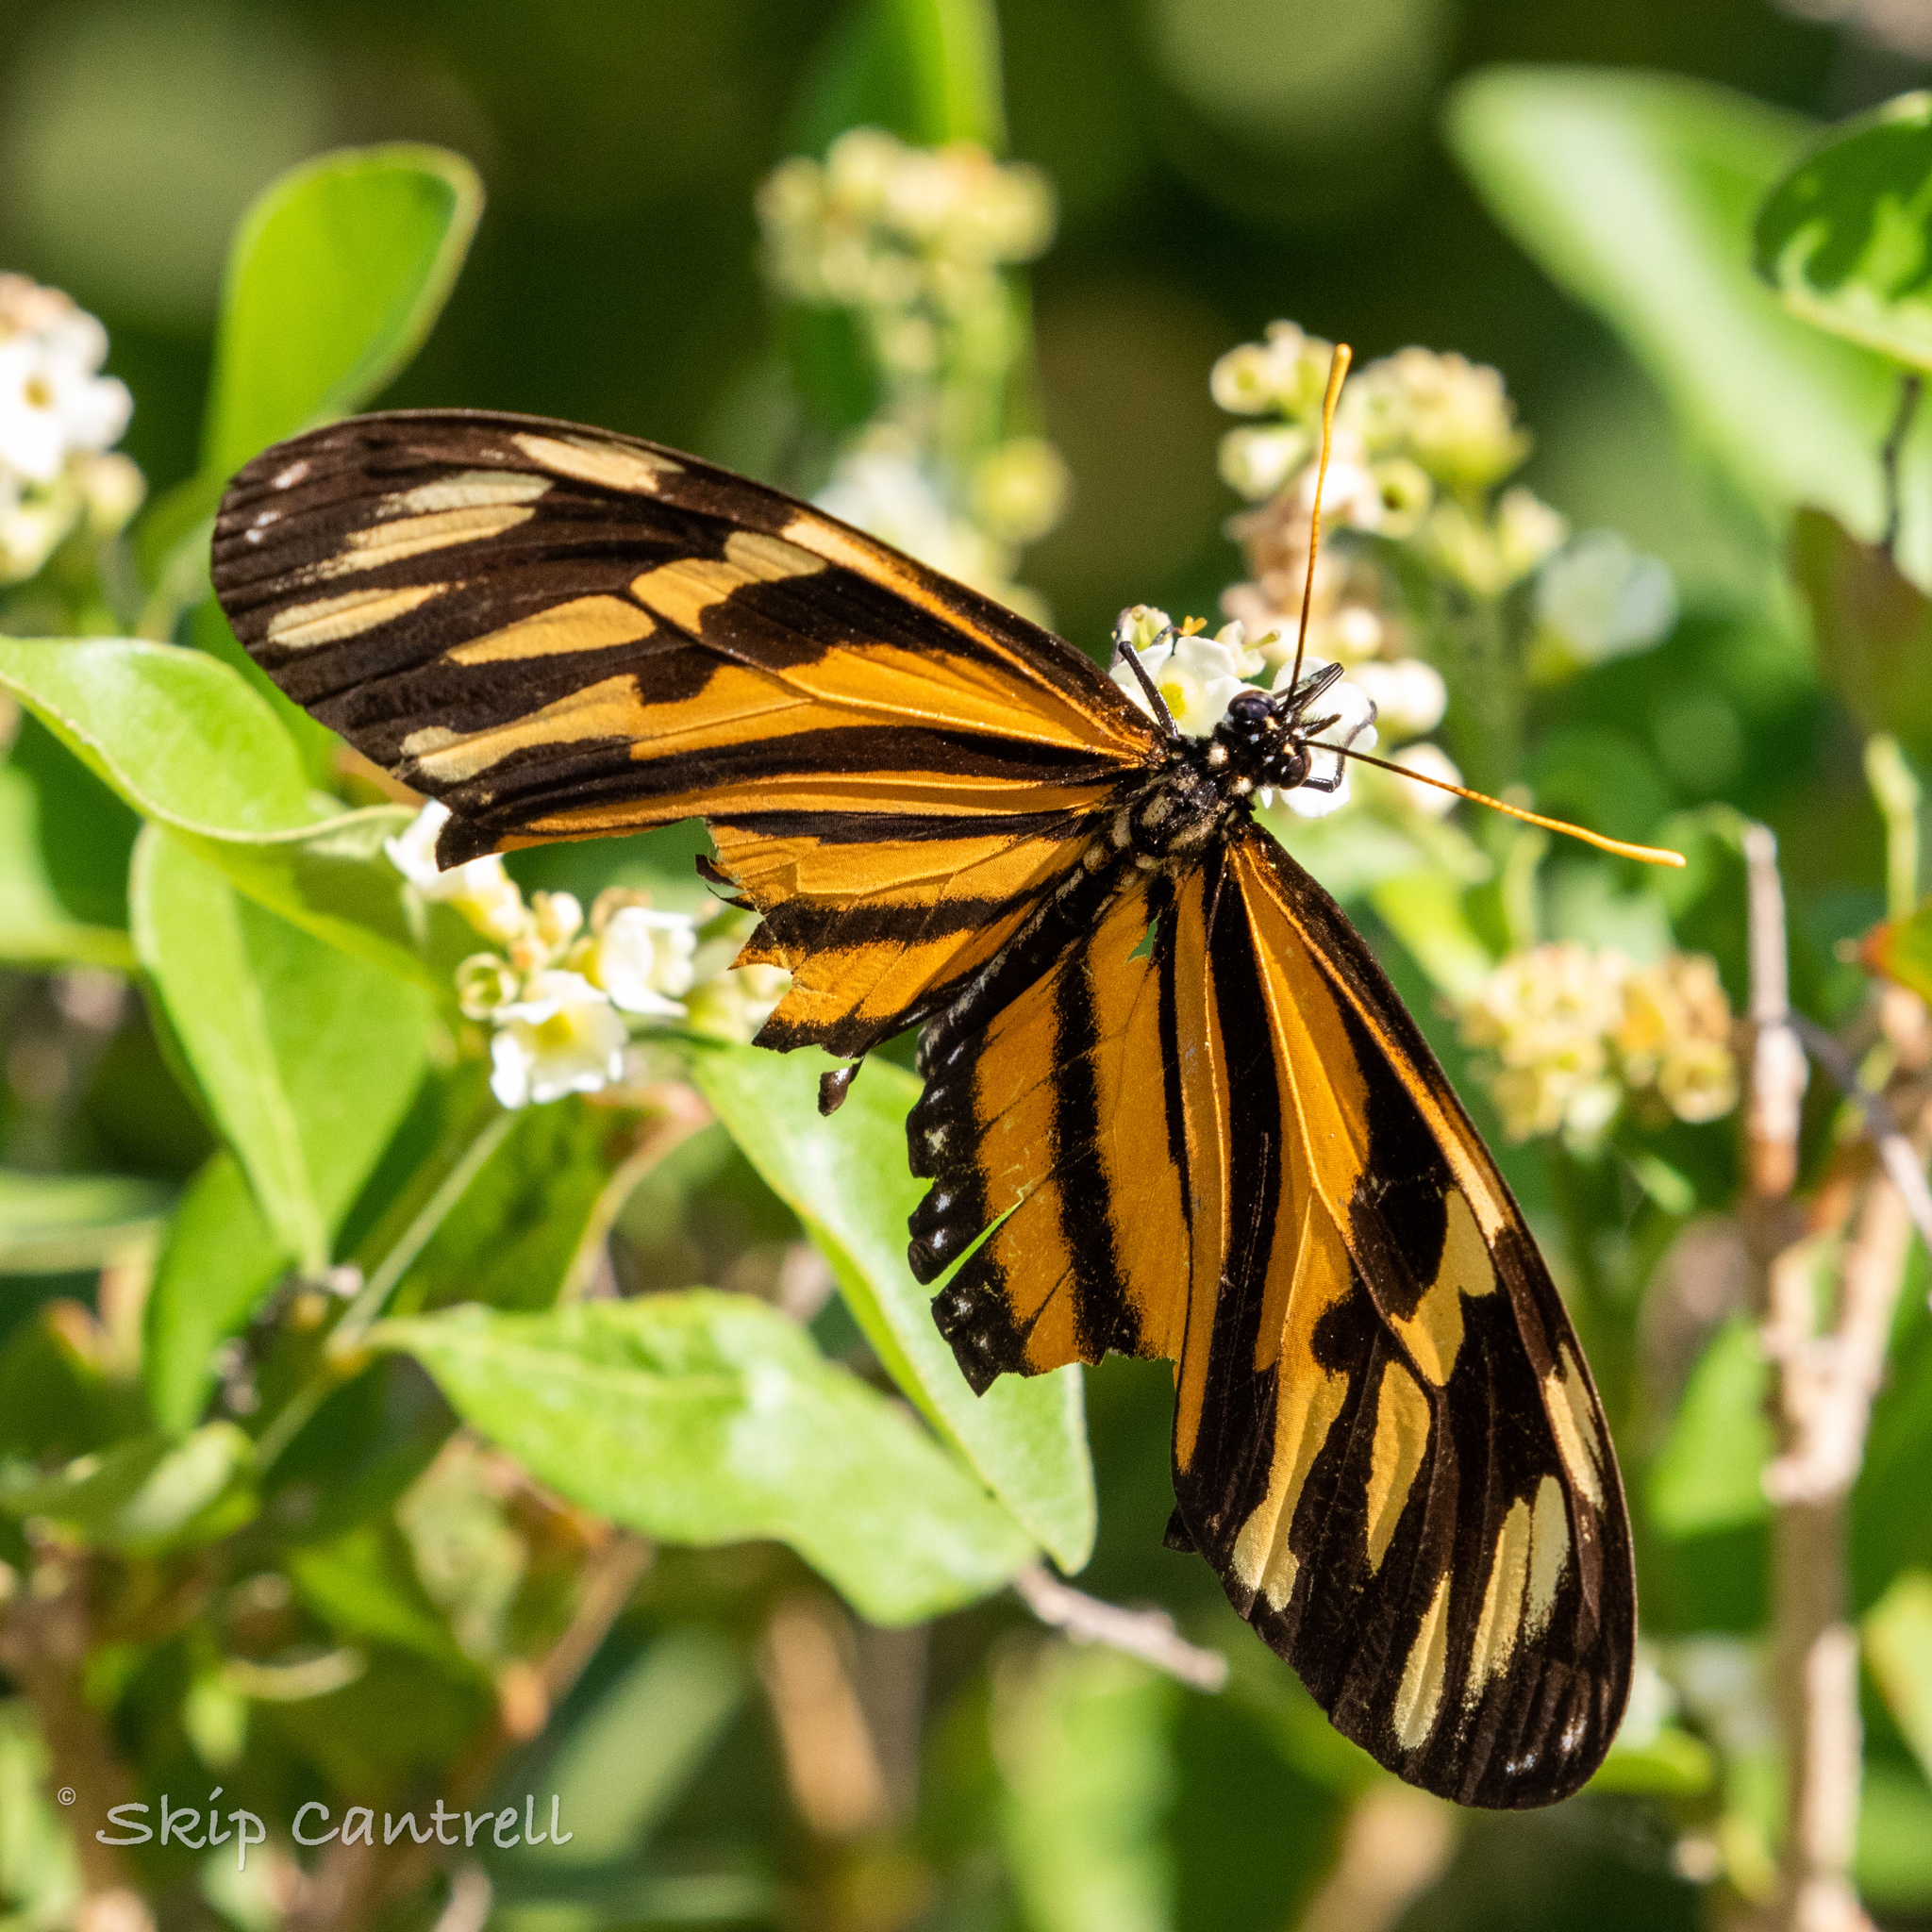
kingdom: Animalia
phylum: Arthropoda
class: Insecta
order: Lepidoptera
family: Nymphalidae
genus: Eueides
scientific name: Eueides isabella
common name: Isabella's longwing
